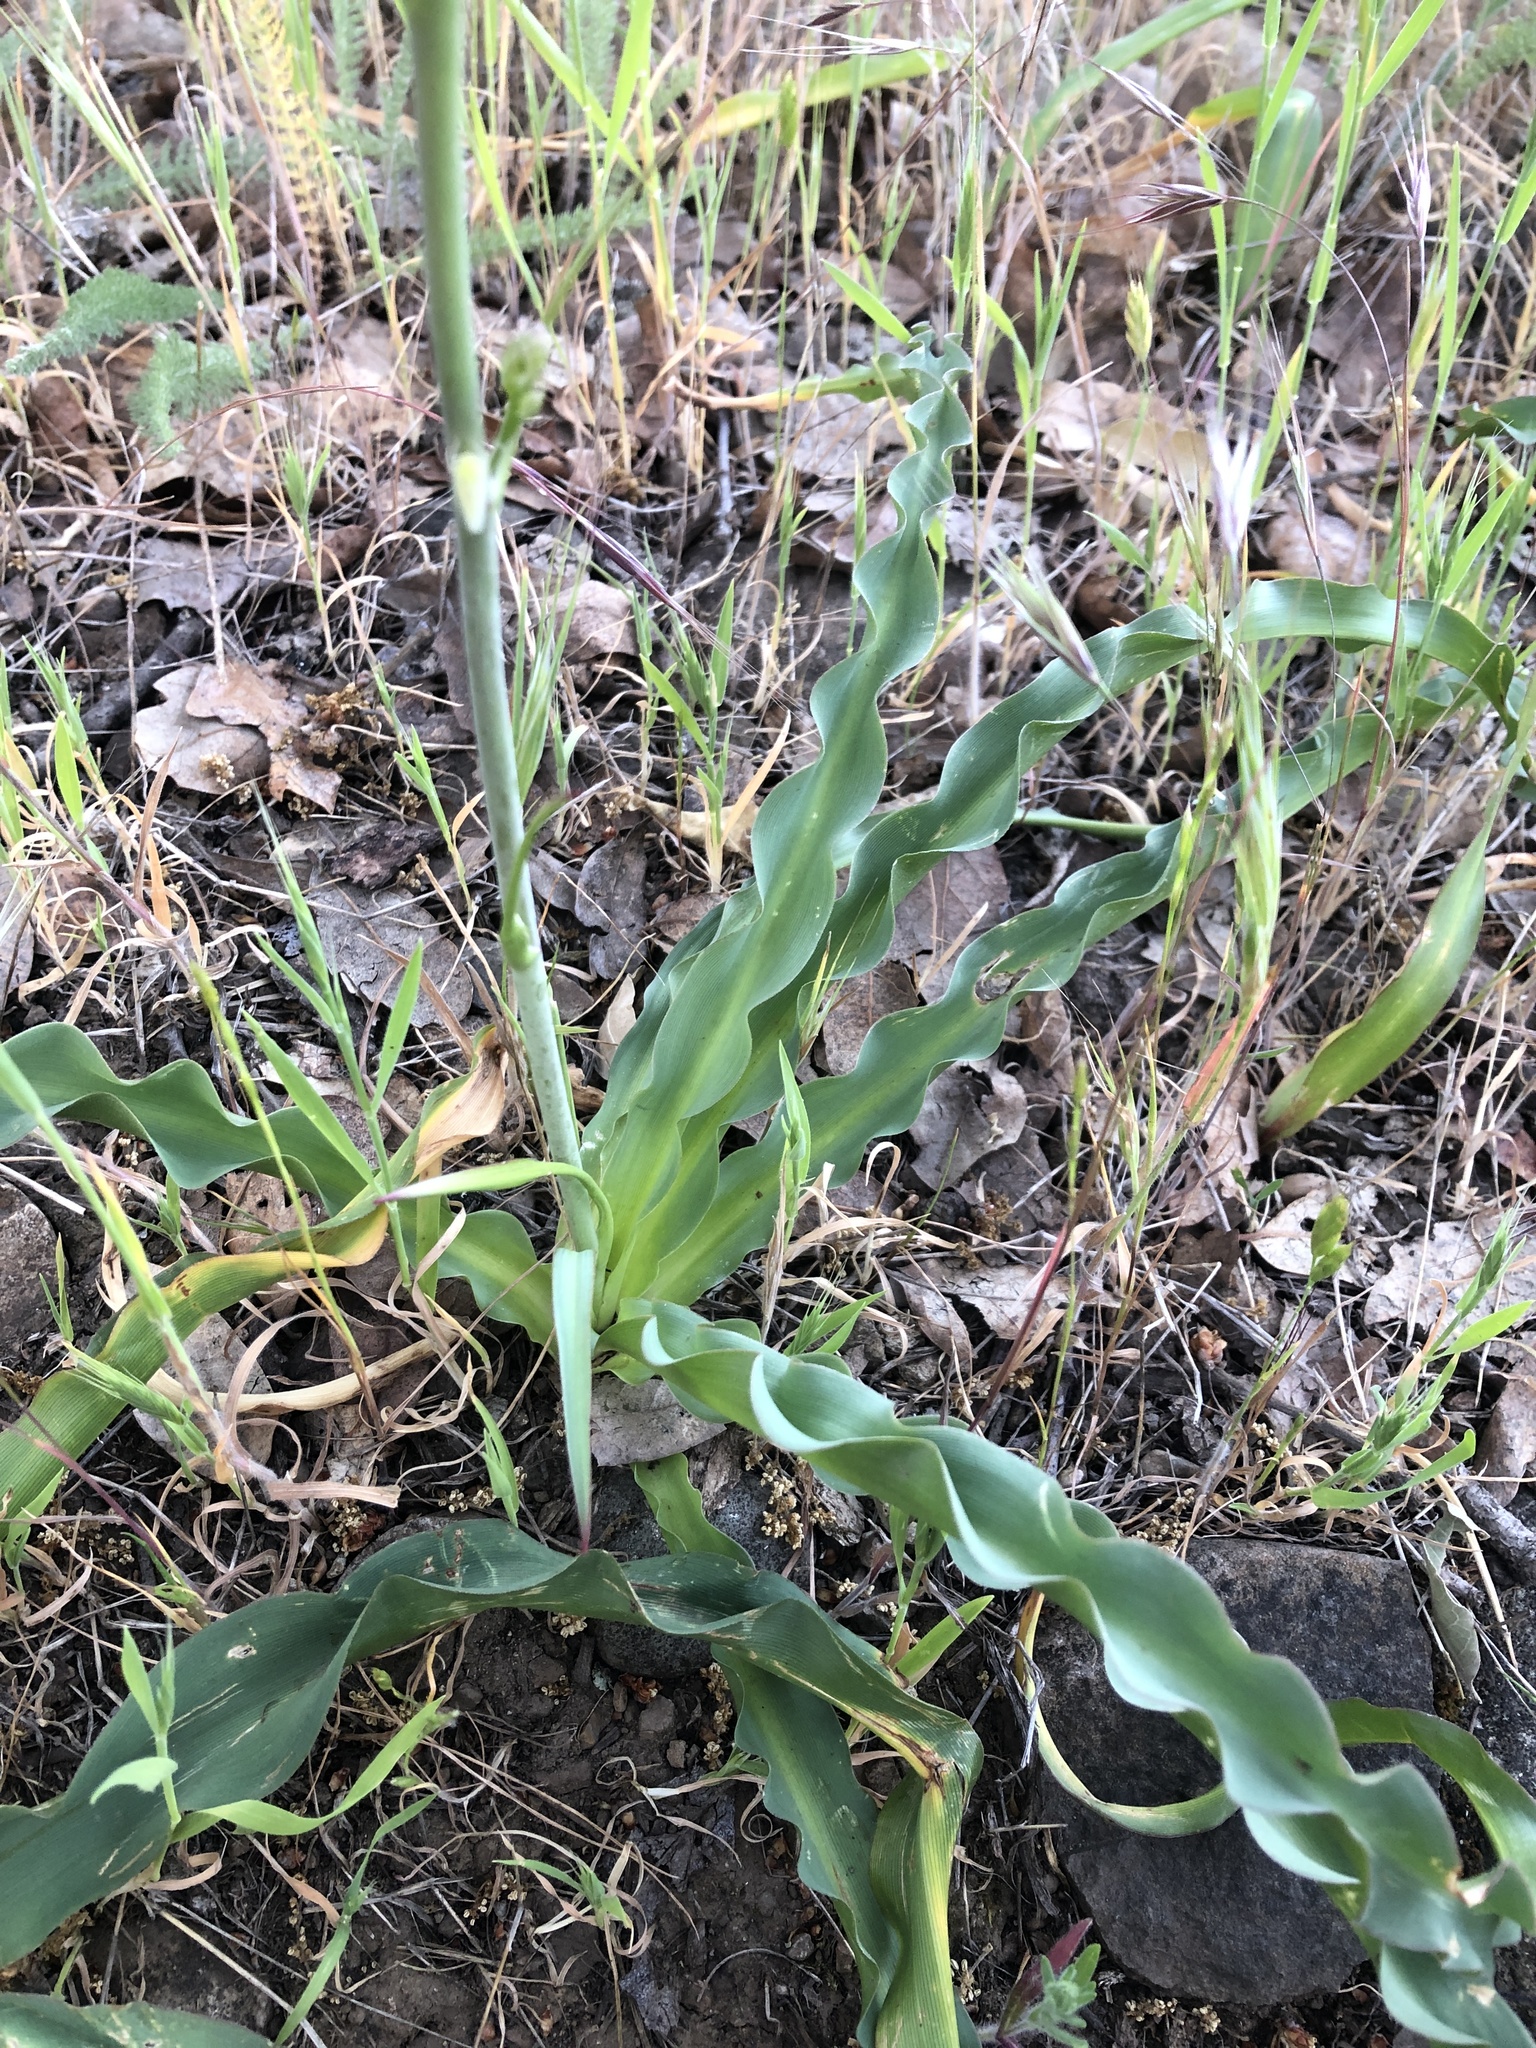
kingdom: Plantae
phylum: Tracheophyta
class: Liliopsida
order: Asparagales
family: Asparagaceae
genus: Chlorogalum
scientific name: Chlorogalum pomeridianum
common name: Amole
